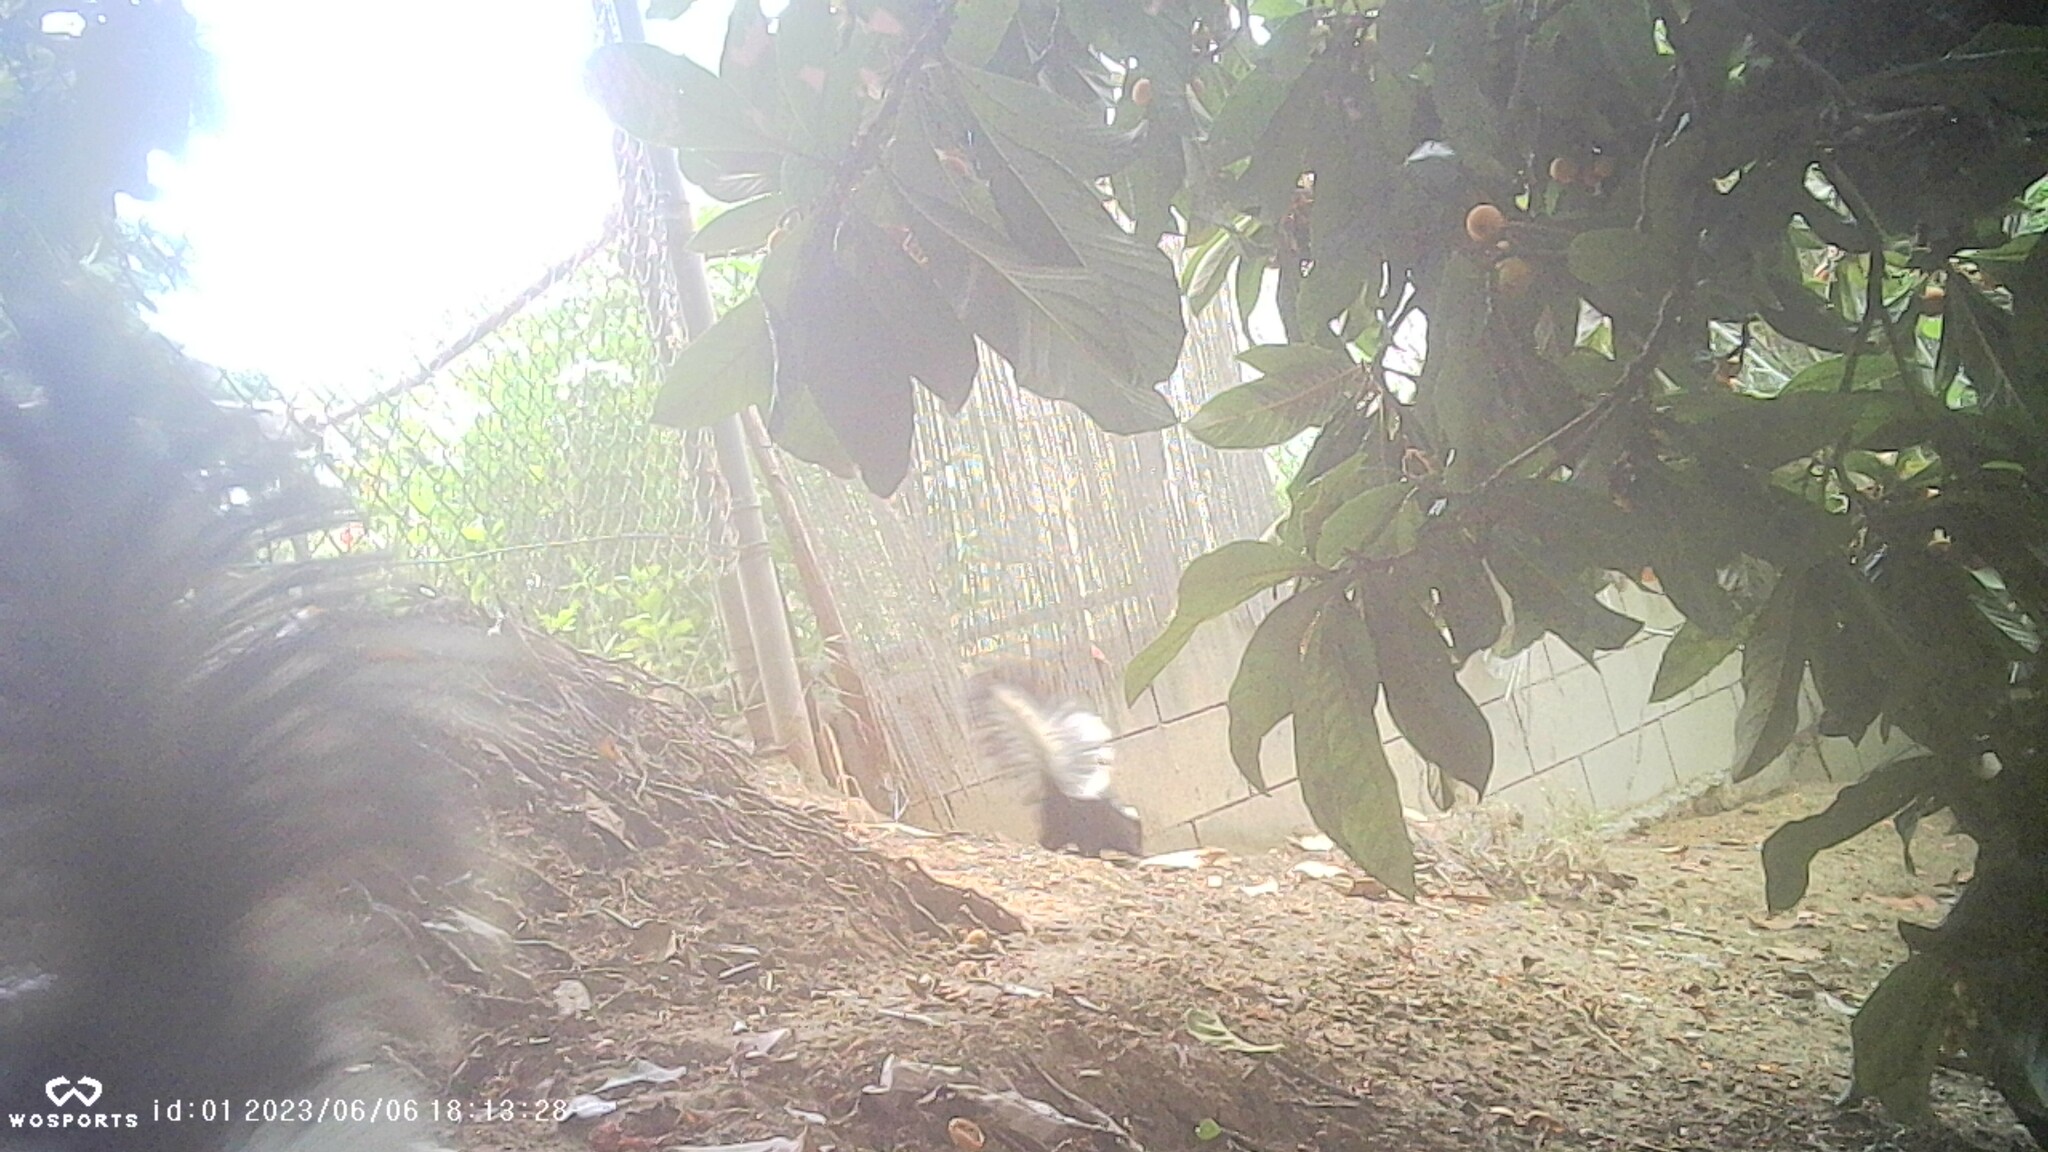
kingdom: Animalia
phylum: Chordata
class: Mammalia
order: Carnivora
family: Mephitidae
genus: Mephitis
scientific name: Mephitis mephitis
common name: Striped skunk
